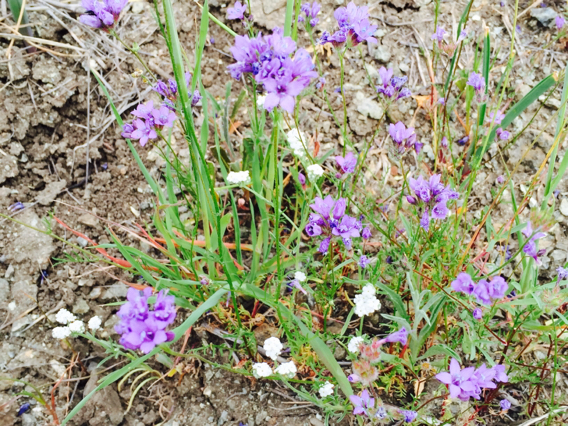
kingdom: Plantae
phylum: Tracheophyta
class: Magnoliopsida
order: Ericales
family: Polemoniaceae
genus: Gilia
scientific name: Gilia achilleifolia
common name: California gily-flower
